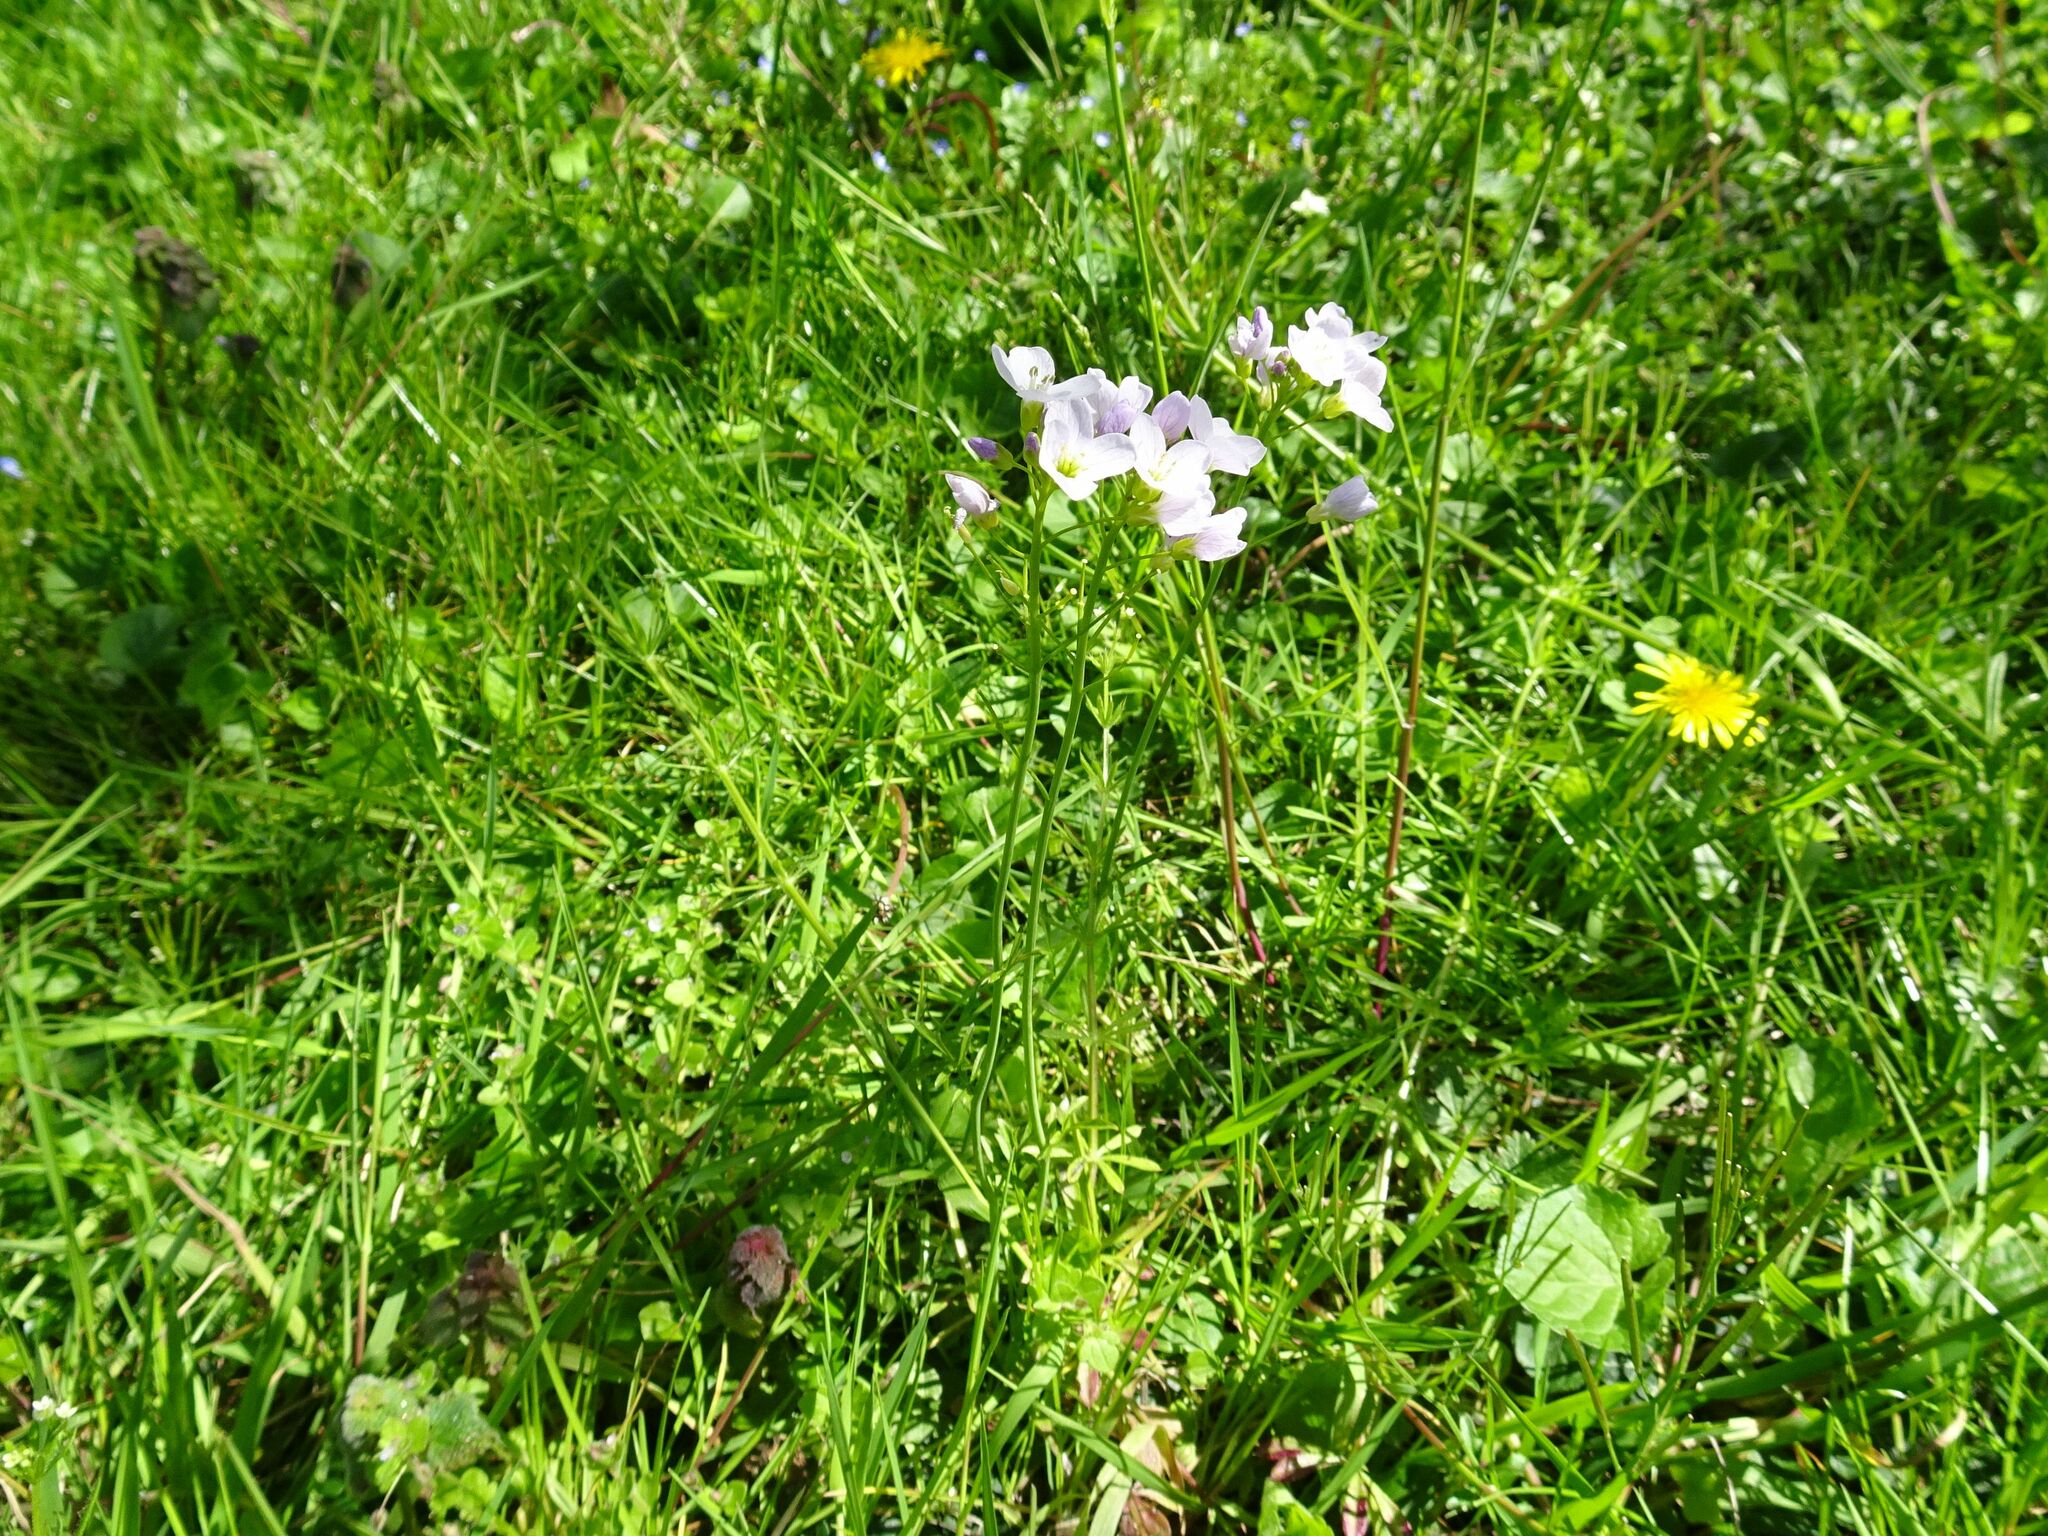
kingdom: Plantae
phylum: Tracheophyta
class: Magnoliopsida
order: Brassicales
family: Brassicaceae
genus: Cardamine
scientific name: Cardamine pratensis
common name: Cuckoo flower
